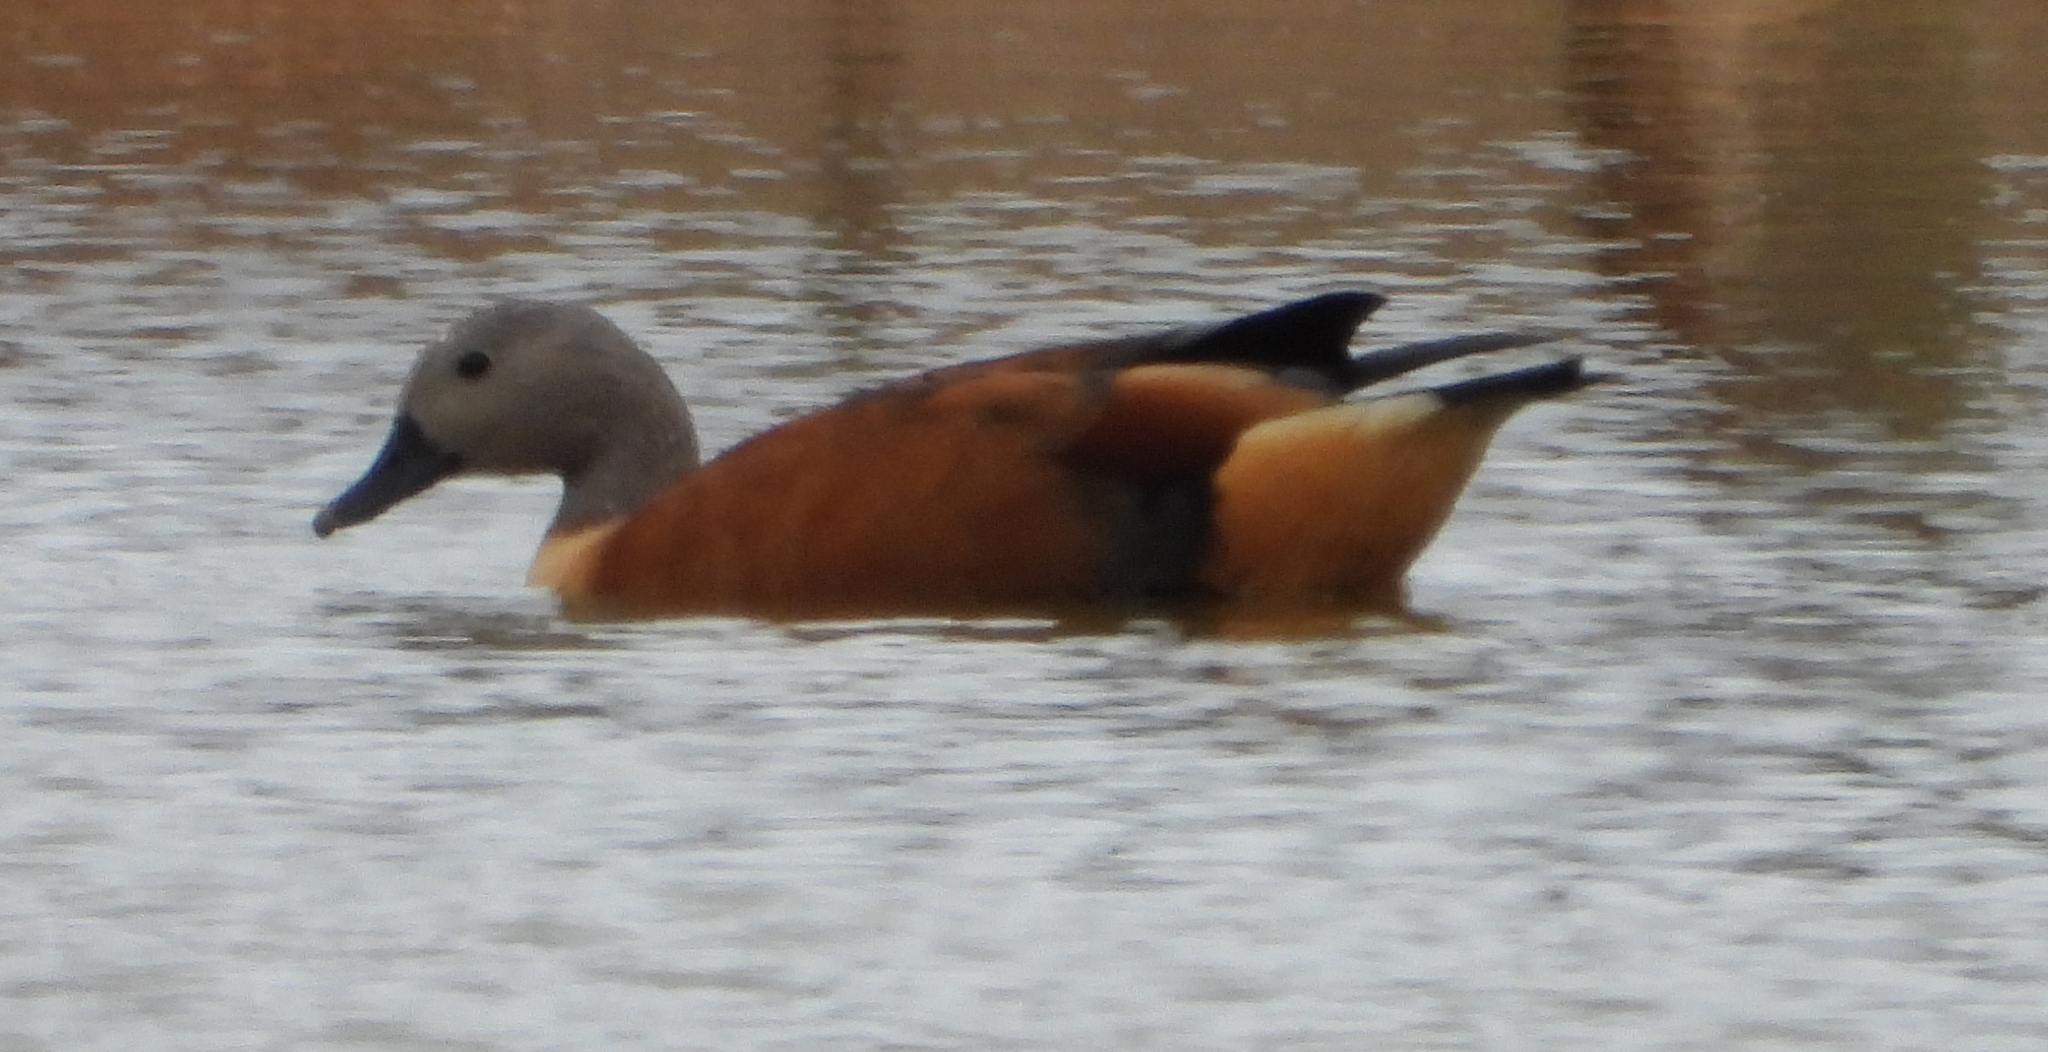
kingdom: Animalia
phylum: Chordata
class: Aves
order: Anseriformes
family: Anatidae
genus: Tadorna
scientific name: Tadorna cana
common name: South african shelduck
